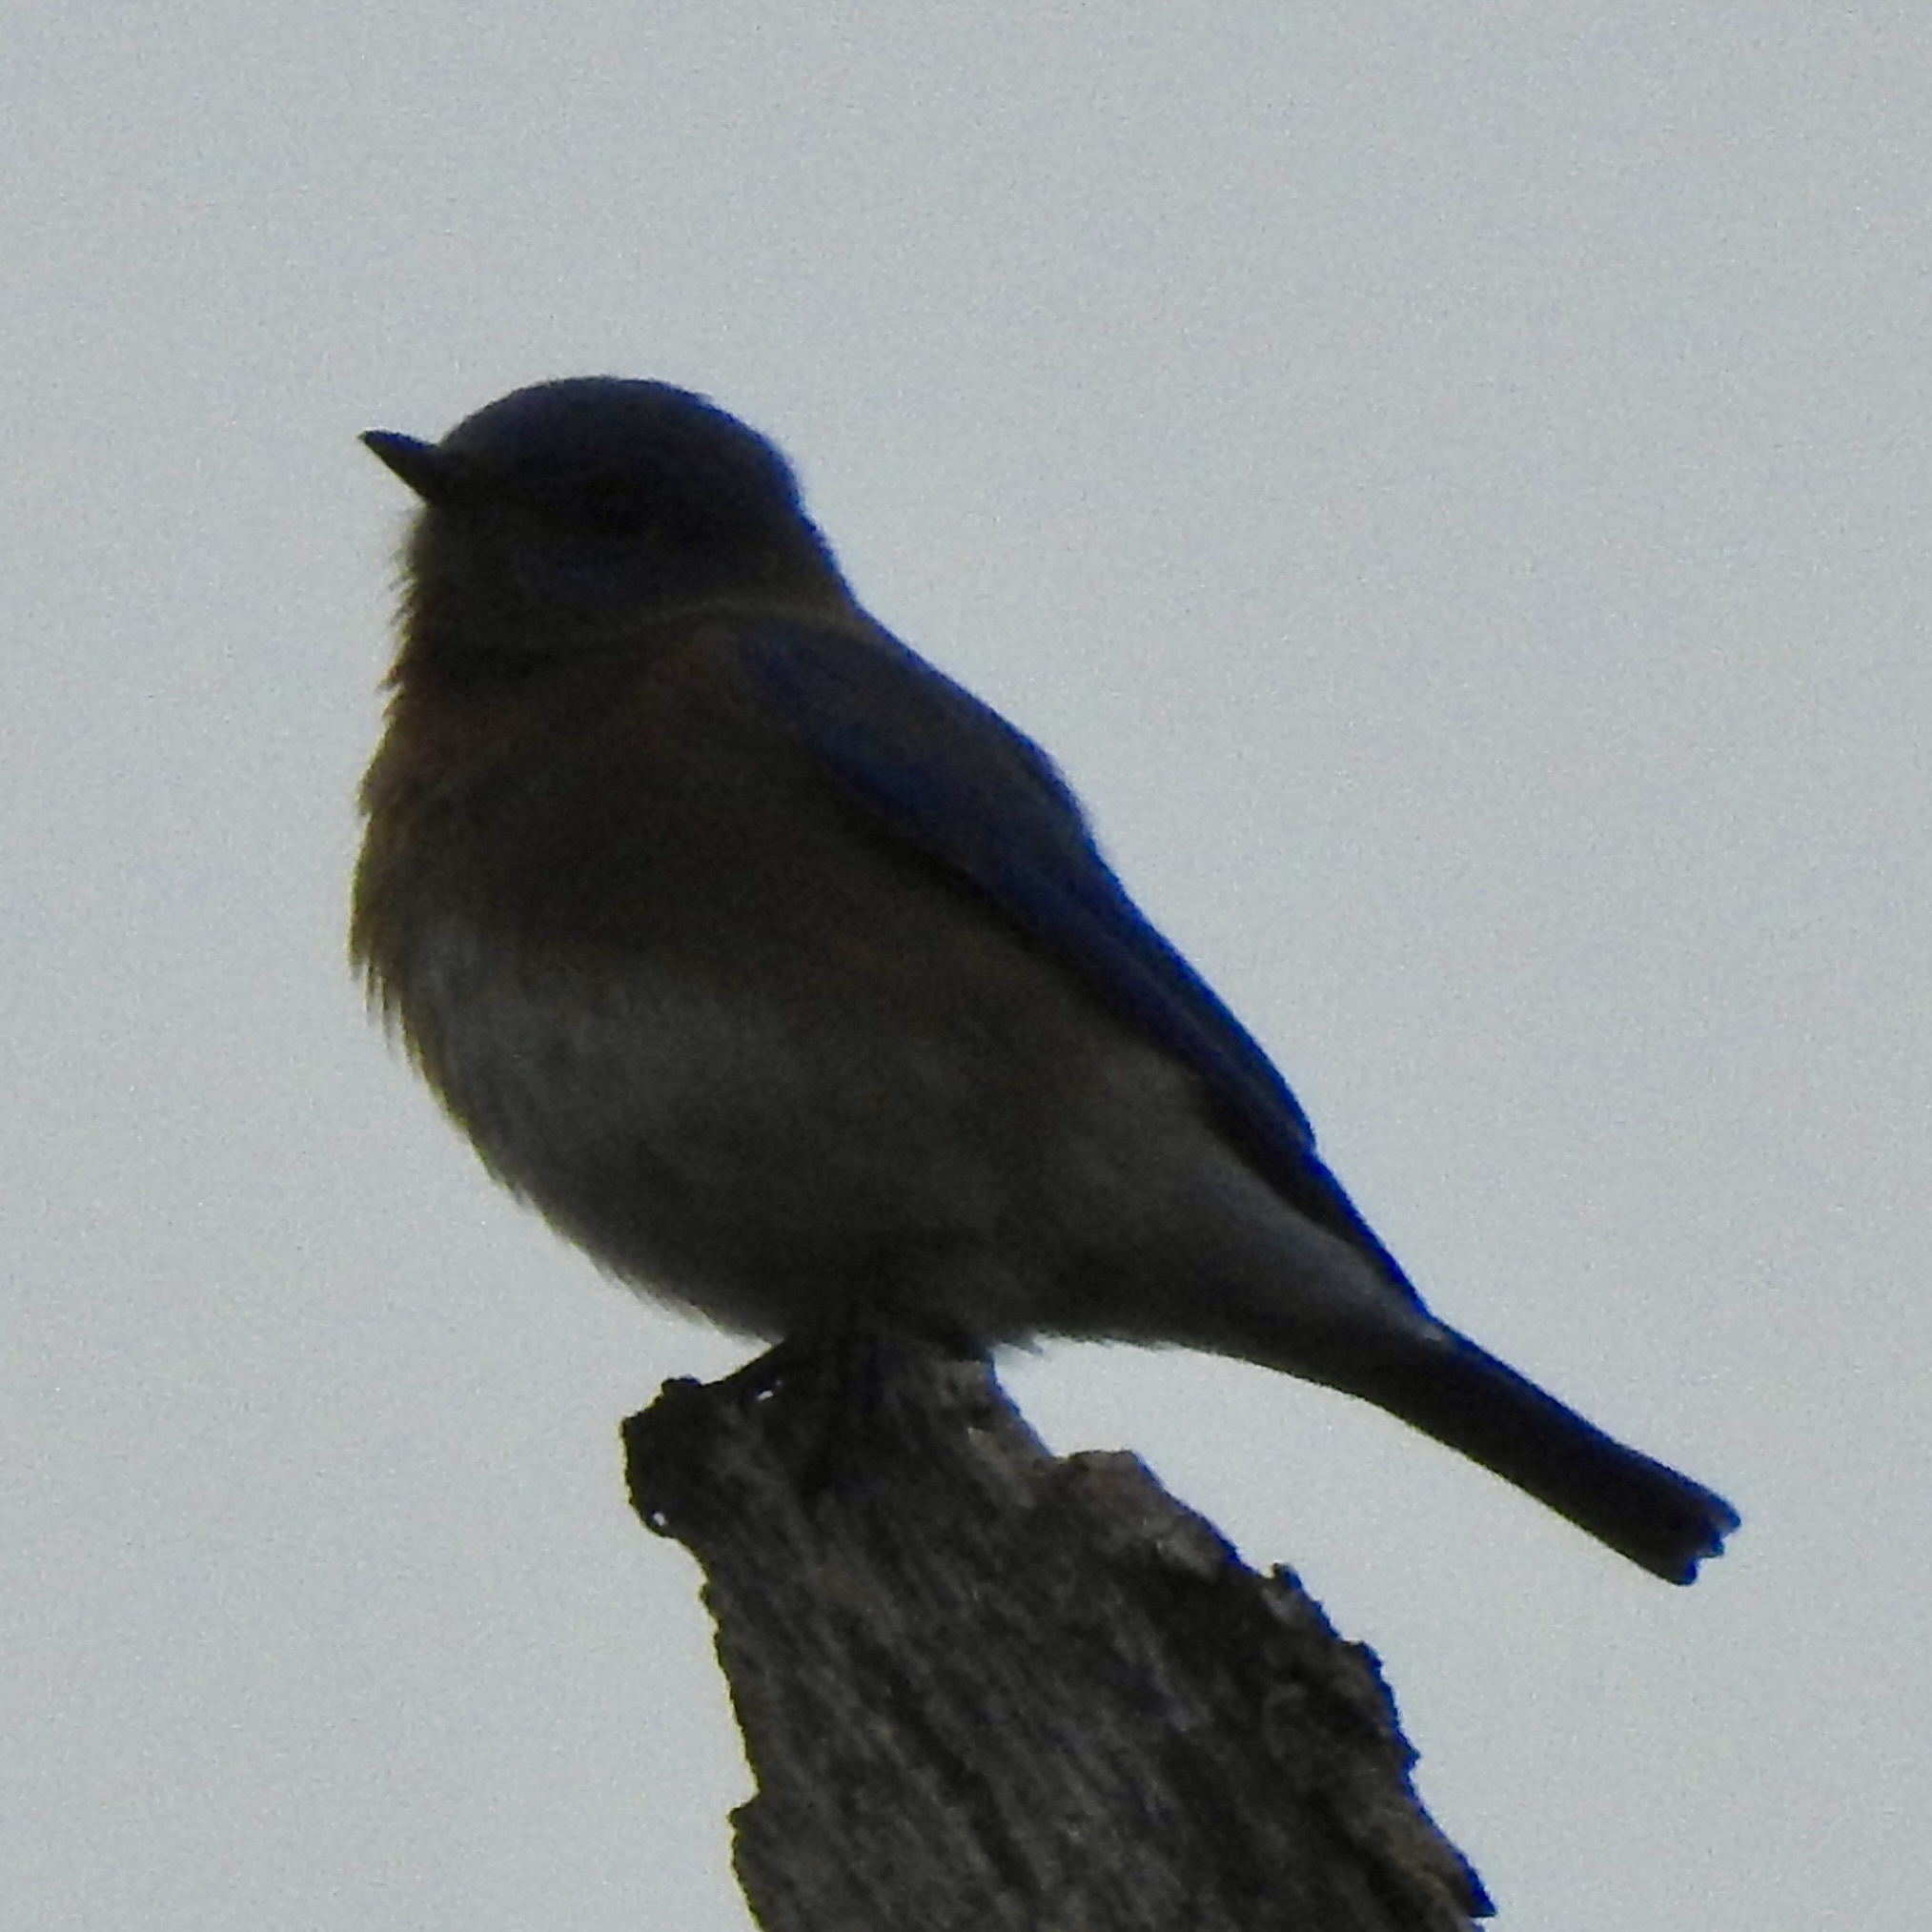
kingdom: Animalia
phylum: Chordata
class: Aves
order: Passeriformes
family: Turdidae
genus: Sialia
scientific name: Sialia sialis
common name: Eastern bluebird
